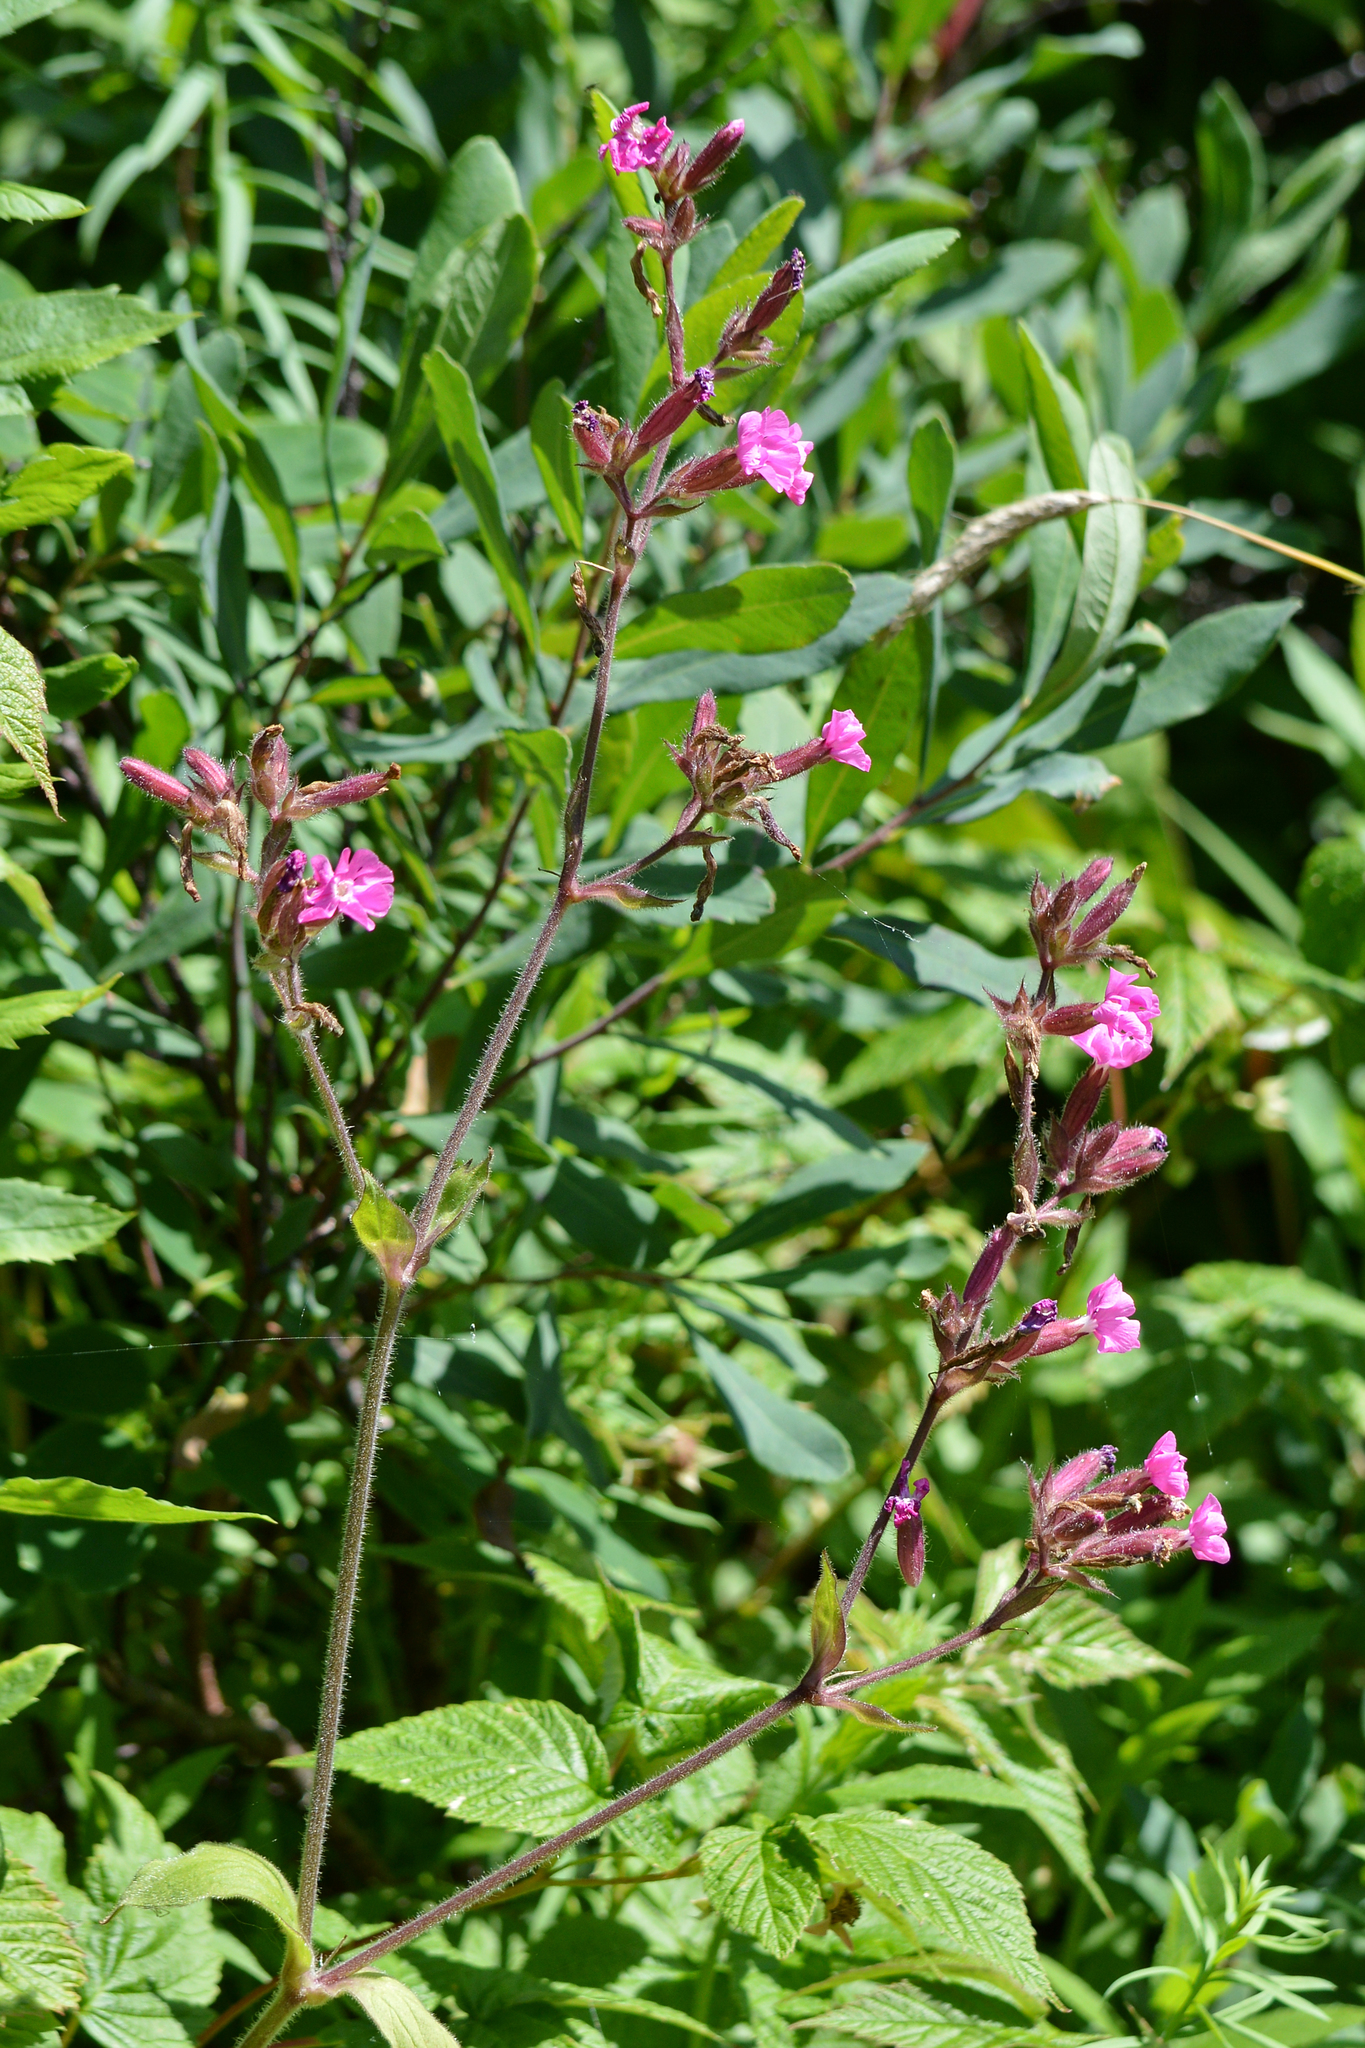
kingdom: Plantae
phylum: Tracheophyta
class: Magnoliopsida
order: Caryophyllales
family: Caryophyllaceae
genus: Silene
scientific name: Silene dioica
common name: Red campion
